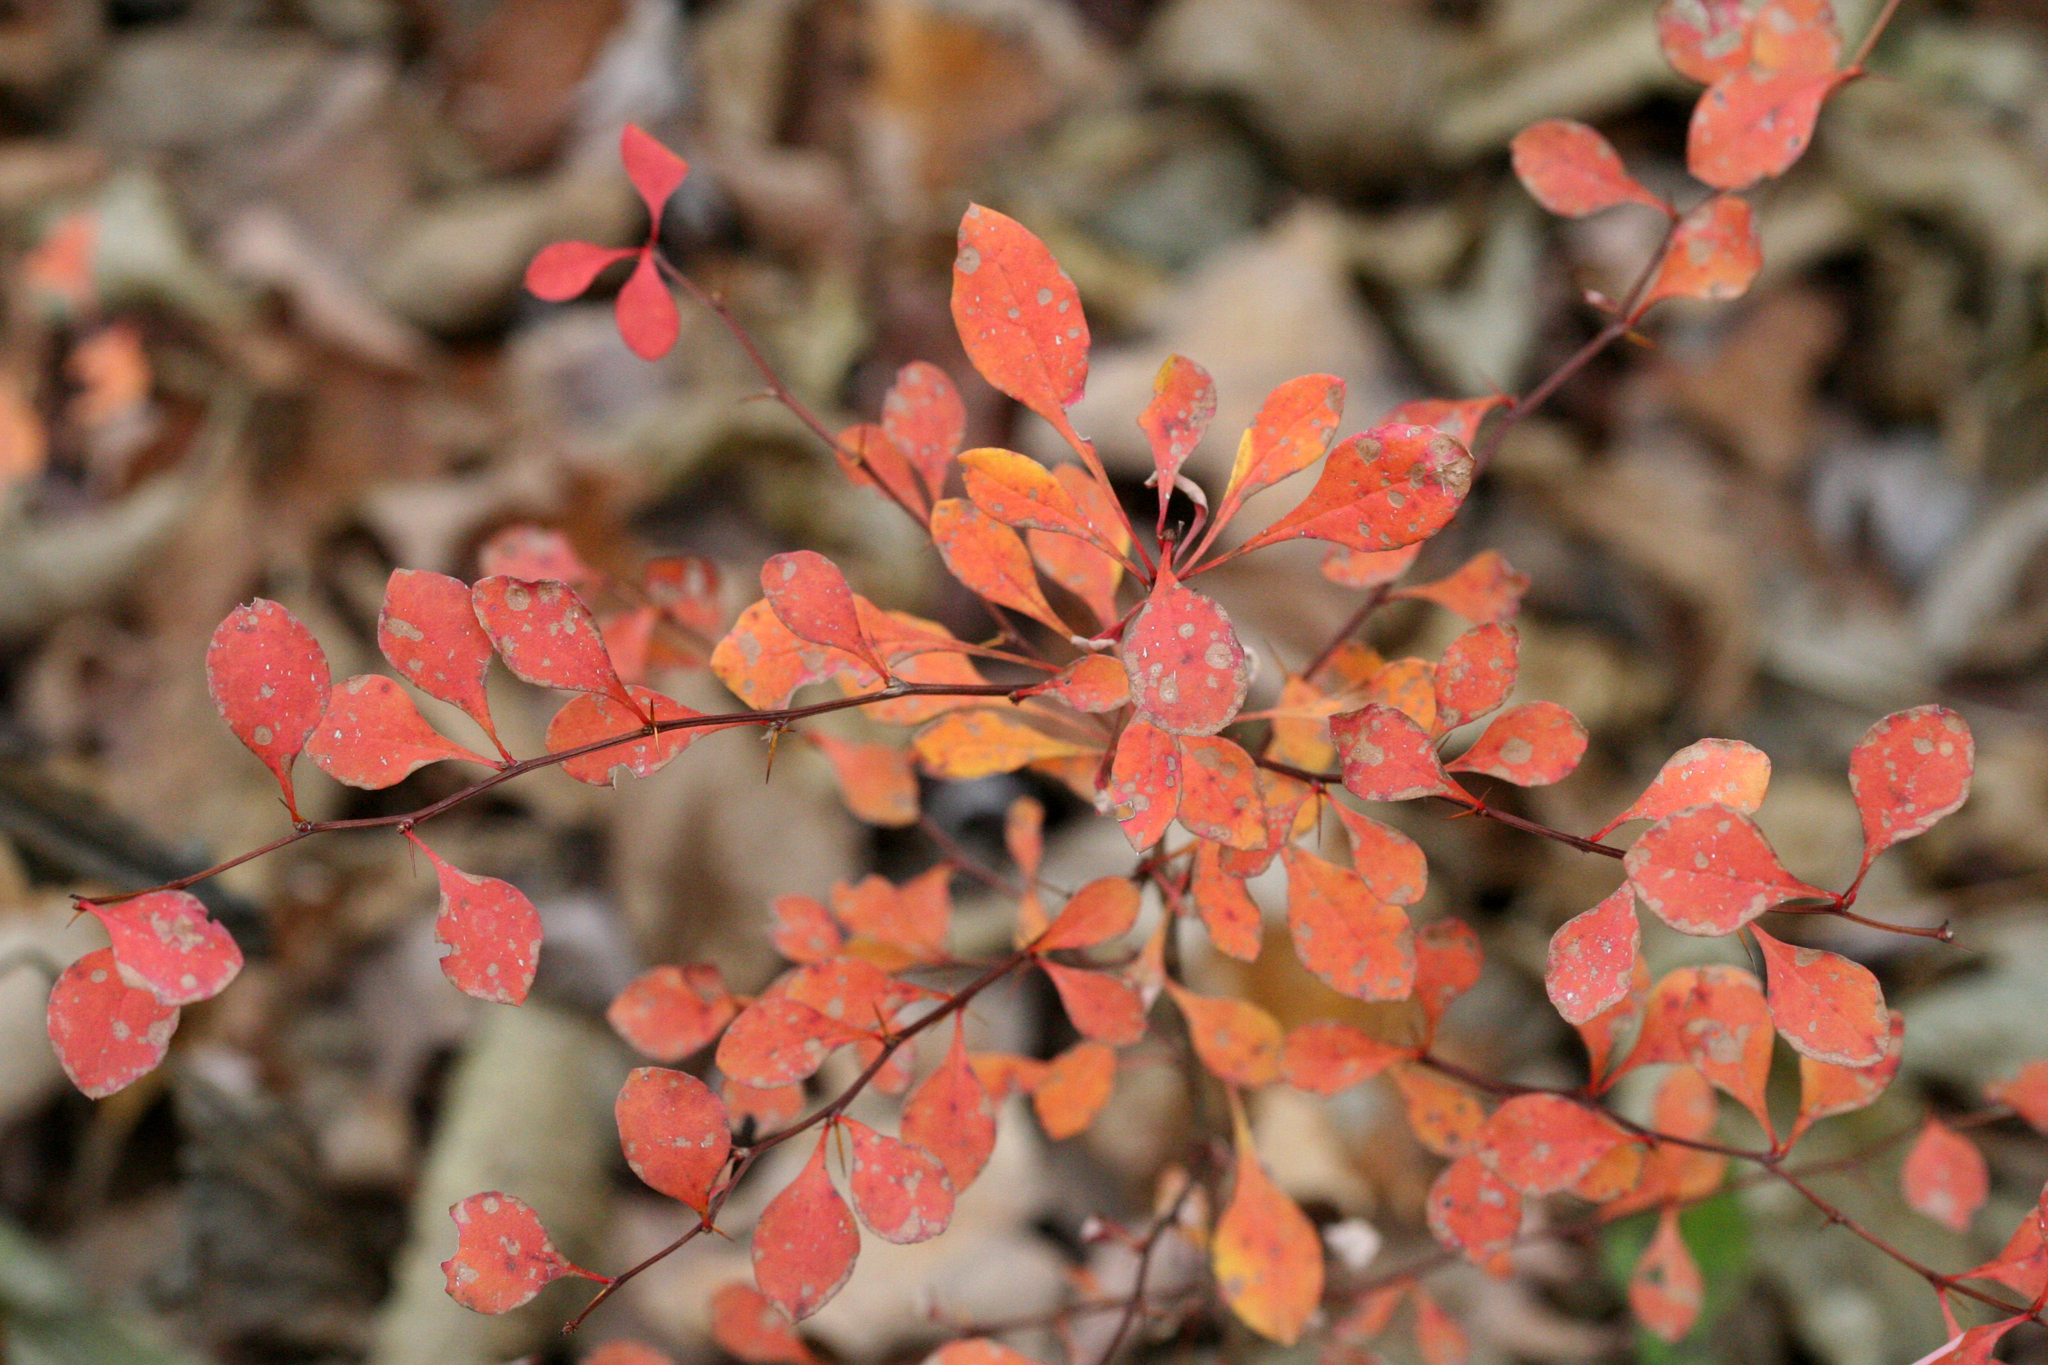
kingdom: Plantae
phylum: Tracheophyta
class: Magnoliopsida
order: Ranunculales
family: Berberidaceae
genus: Berberis
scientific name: Berberis thunbergii
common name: Japanese barberry
